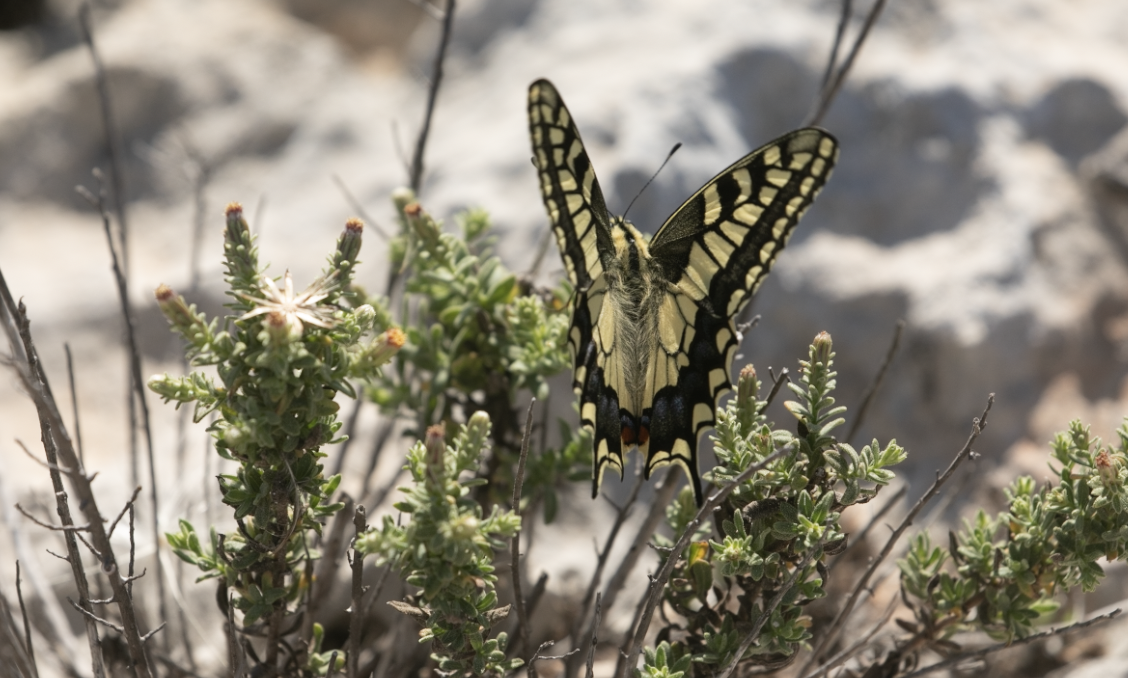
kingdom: Animalia
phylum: Arthropoda
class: Insecta
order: Lepidoptera
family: Papilionidae
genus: Papilio
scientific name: Papilio machaon
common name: Swallowtail
